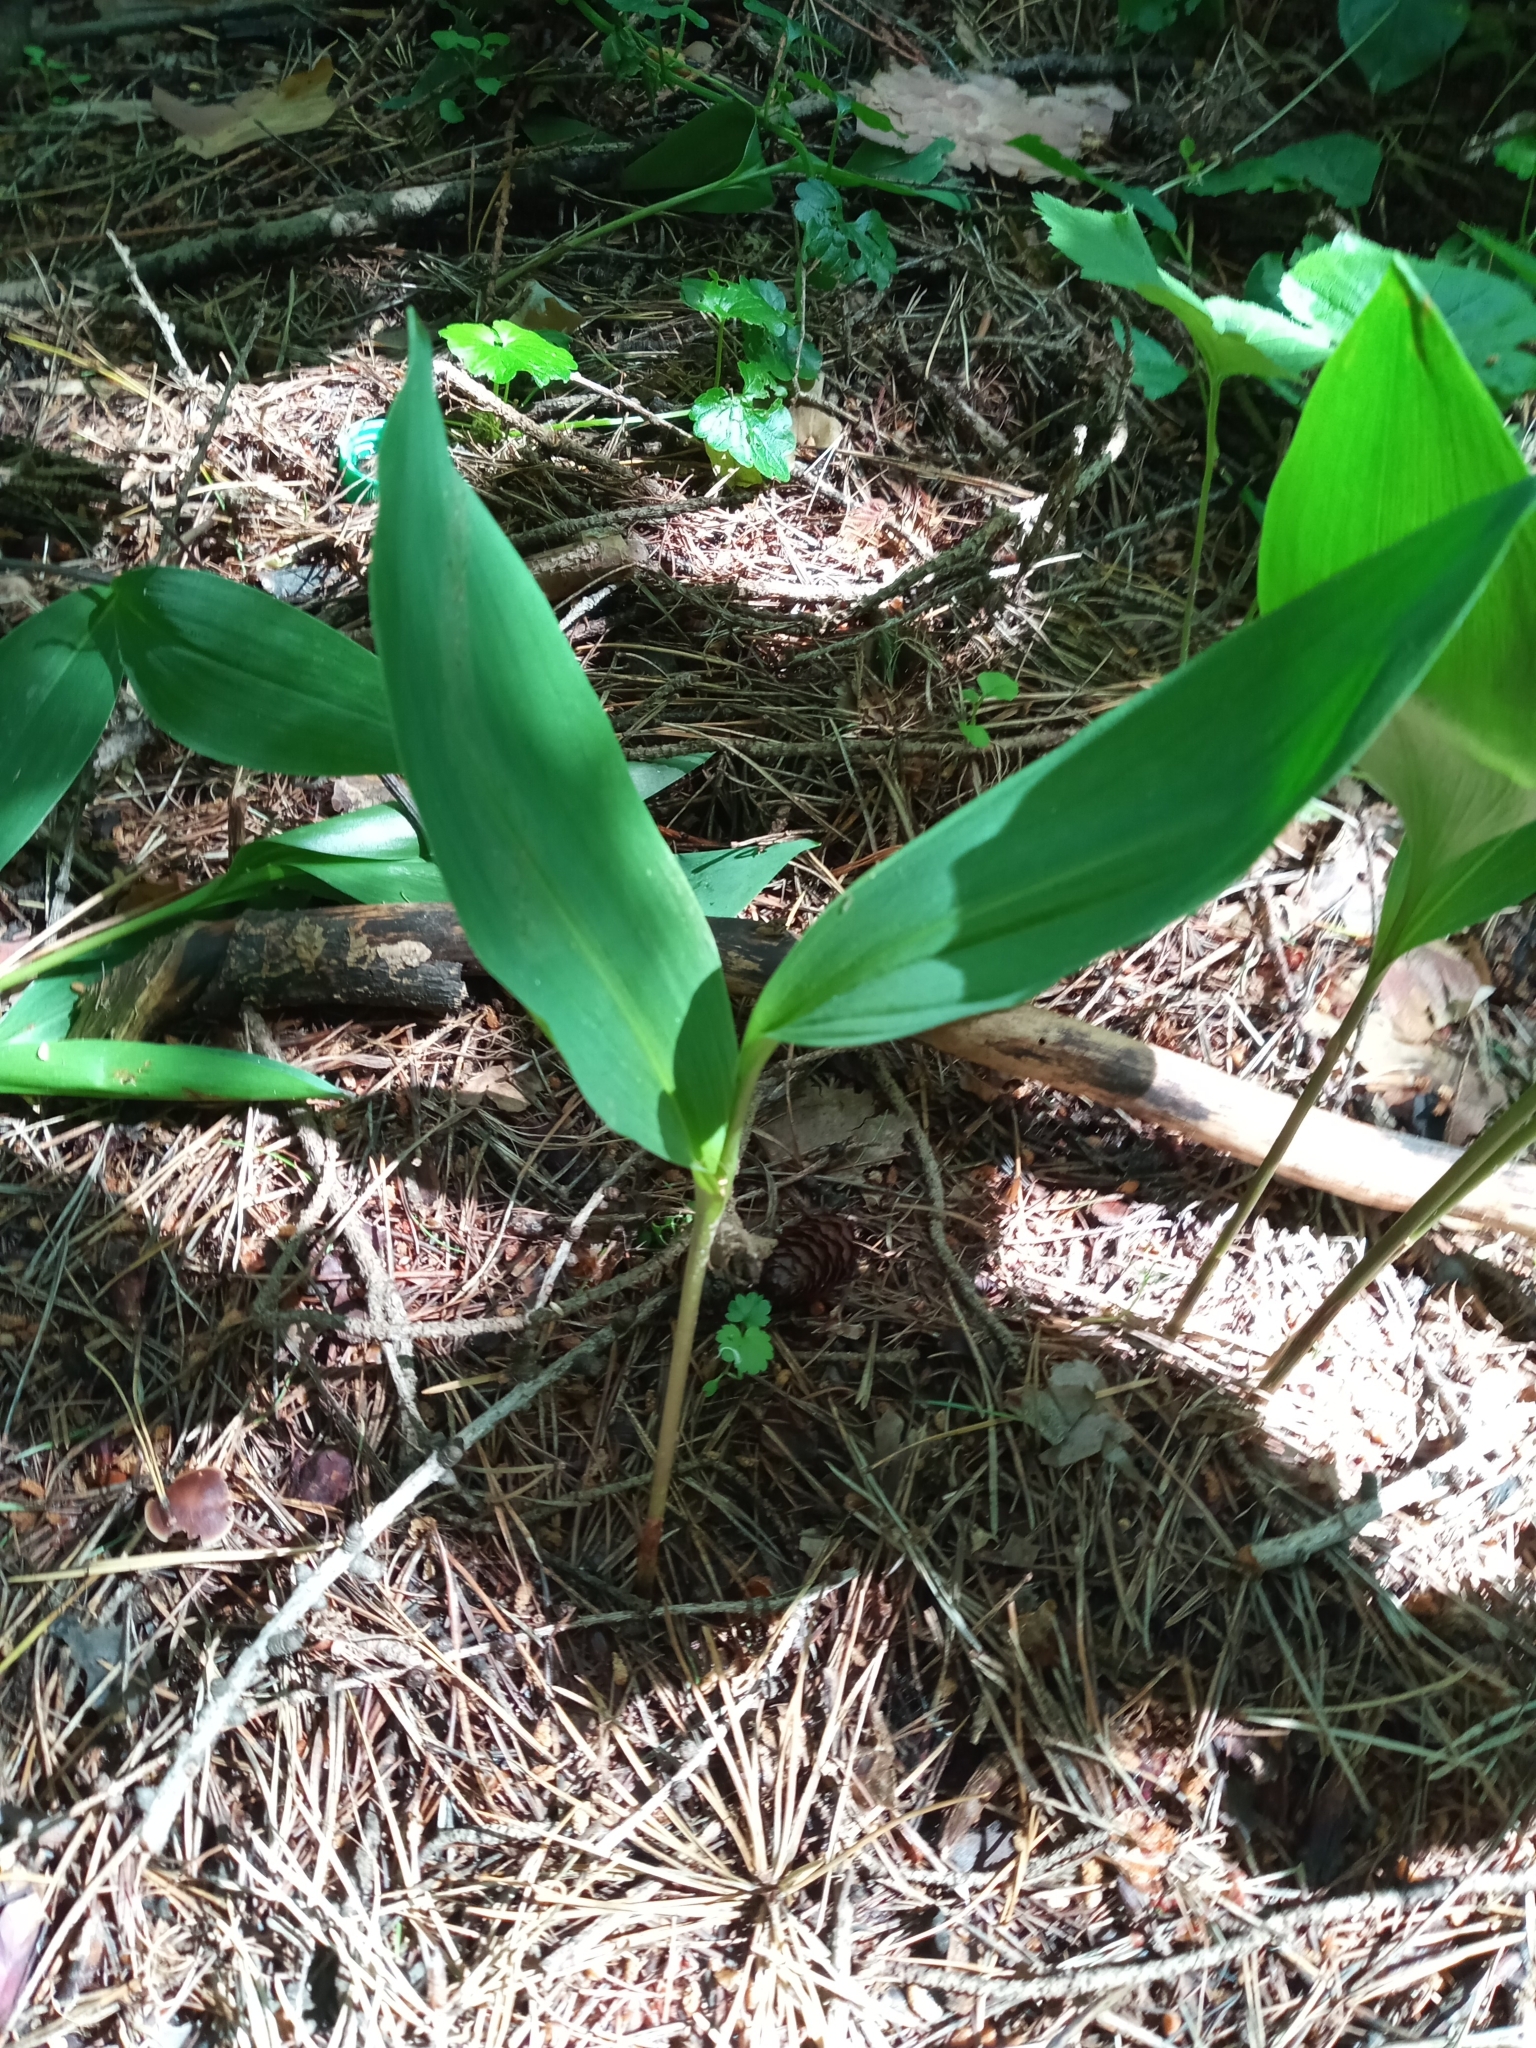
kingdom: Plantae
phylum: Tracheophyta
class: Liliopsida
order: Asparagales
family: Asparagaceae
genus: Convallaria
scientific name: Convallaria majalis
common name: Lily-of-the-valley
